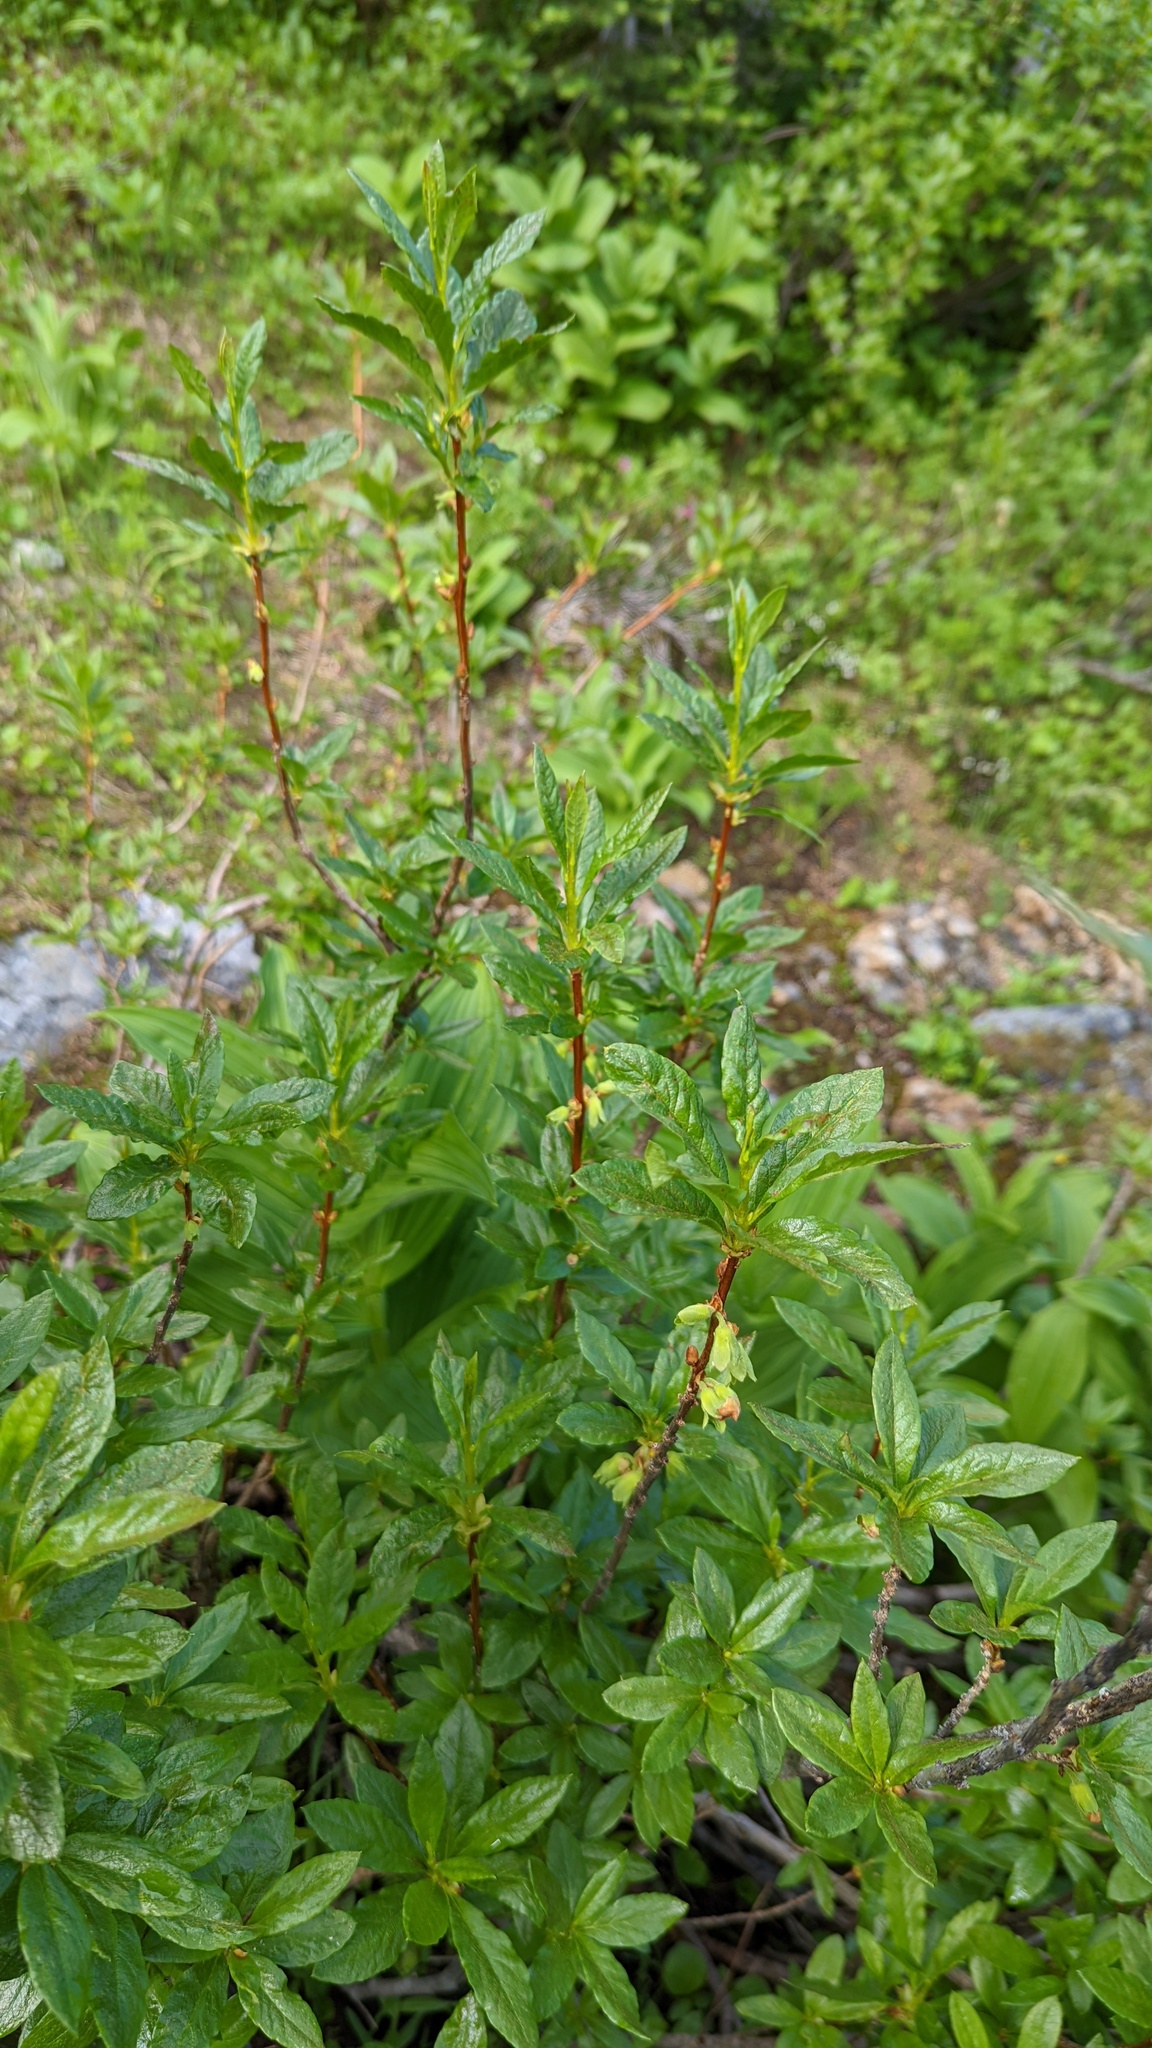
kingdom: Plantae
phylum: Tracheophyta
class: Magnoliopsida
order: Ericales
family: Ericaceae
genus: Rhododendron
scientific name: Rhododendron albiflorum
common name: White rhododendron
